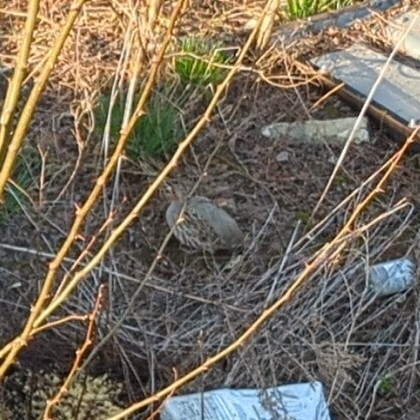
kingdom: Animalia
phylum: Chordata
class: Aves
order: Galliformes
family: Phasianidae
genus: Perdix
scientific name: Perdix perdix
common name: Grey partridge
